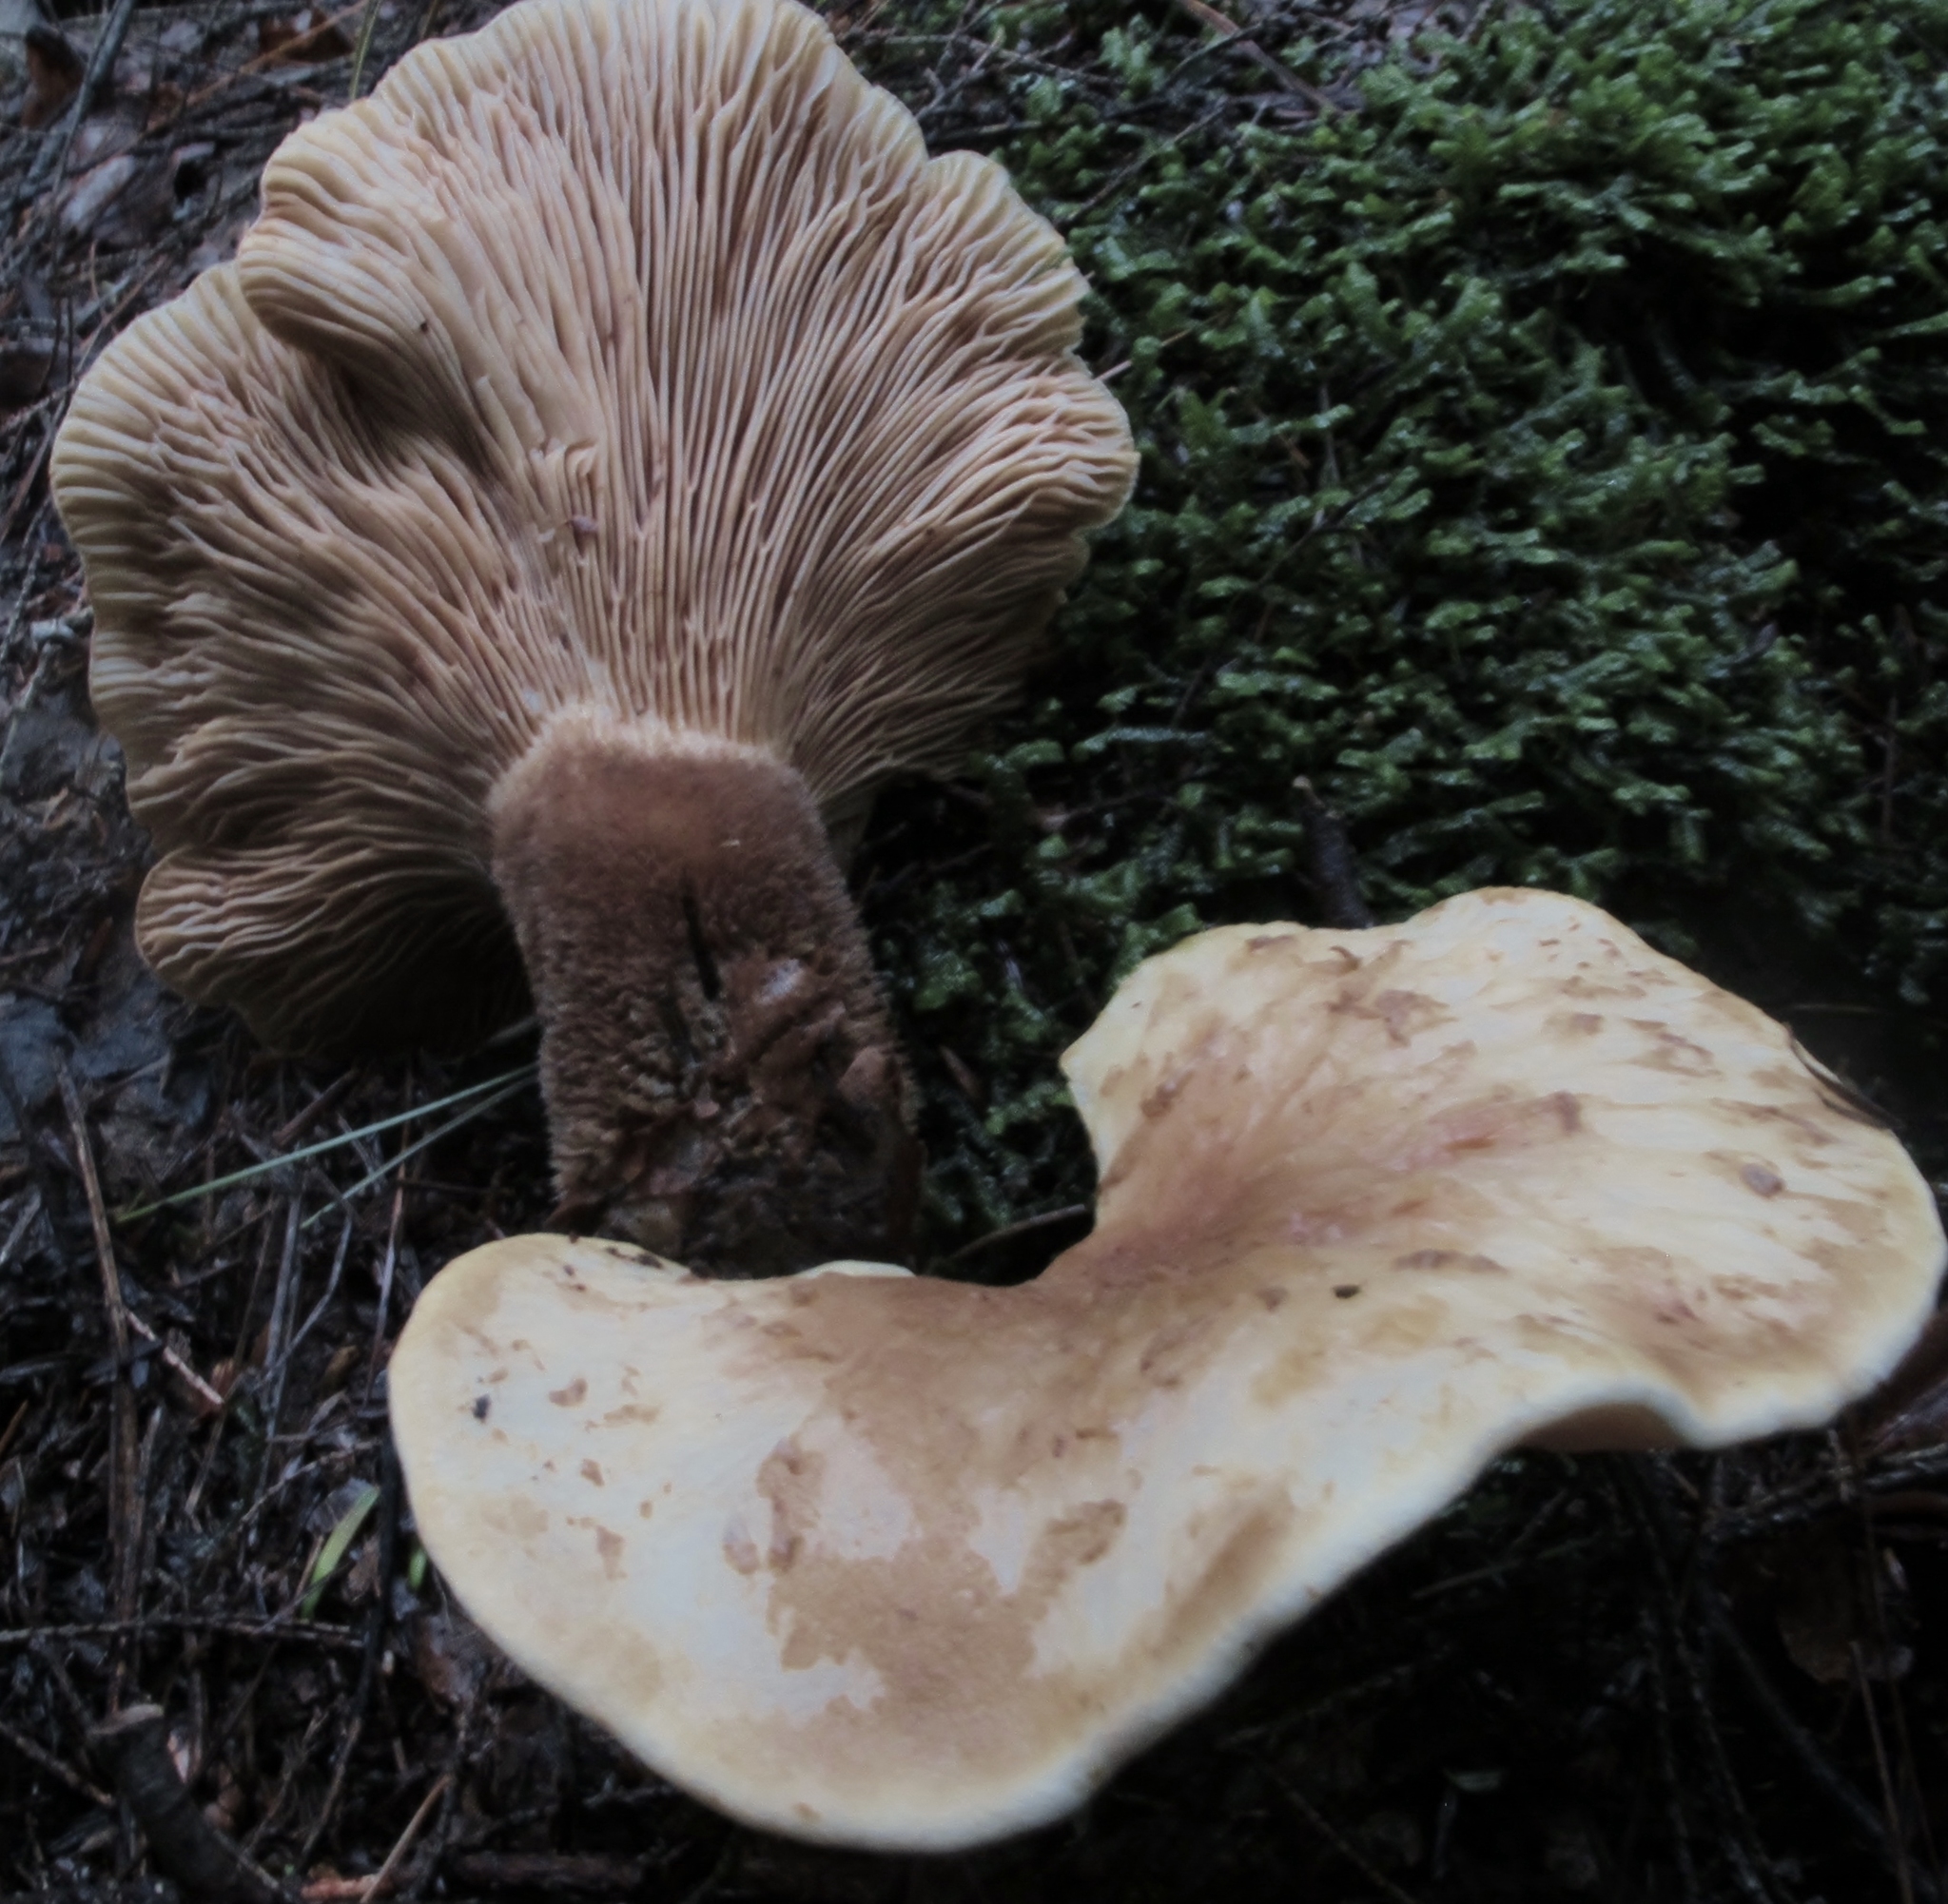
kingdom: Fungi
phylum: Basidiomycota
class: Agaricomycetes
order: Boletales
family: Tapinellaceae
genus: Tapinella
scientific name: Tapinella atrotomentosa
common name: Velvet rollrim
